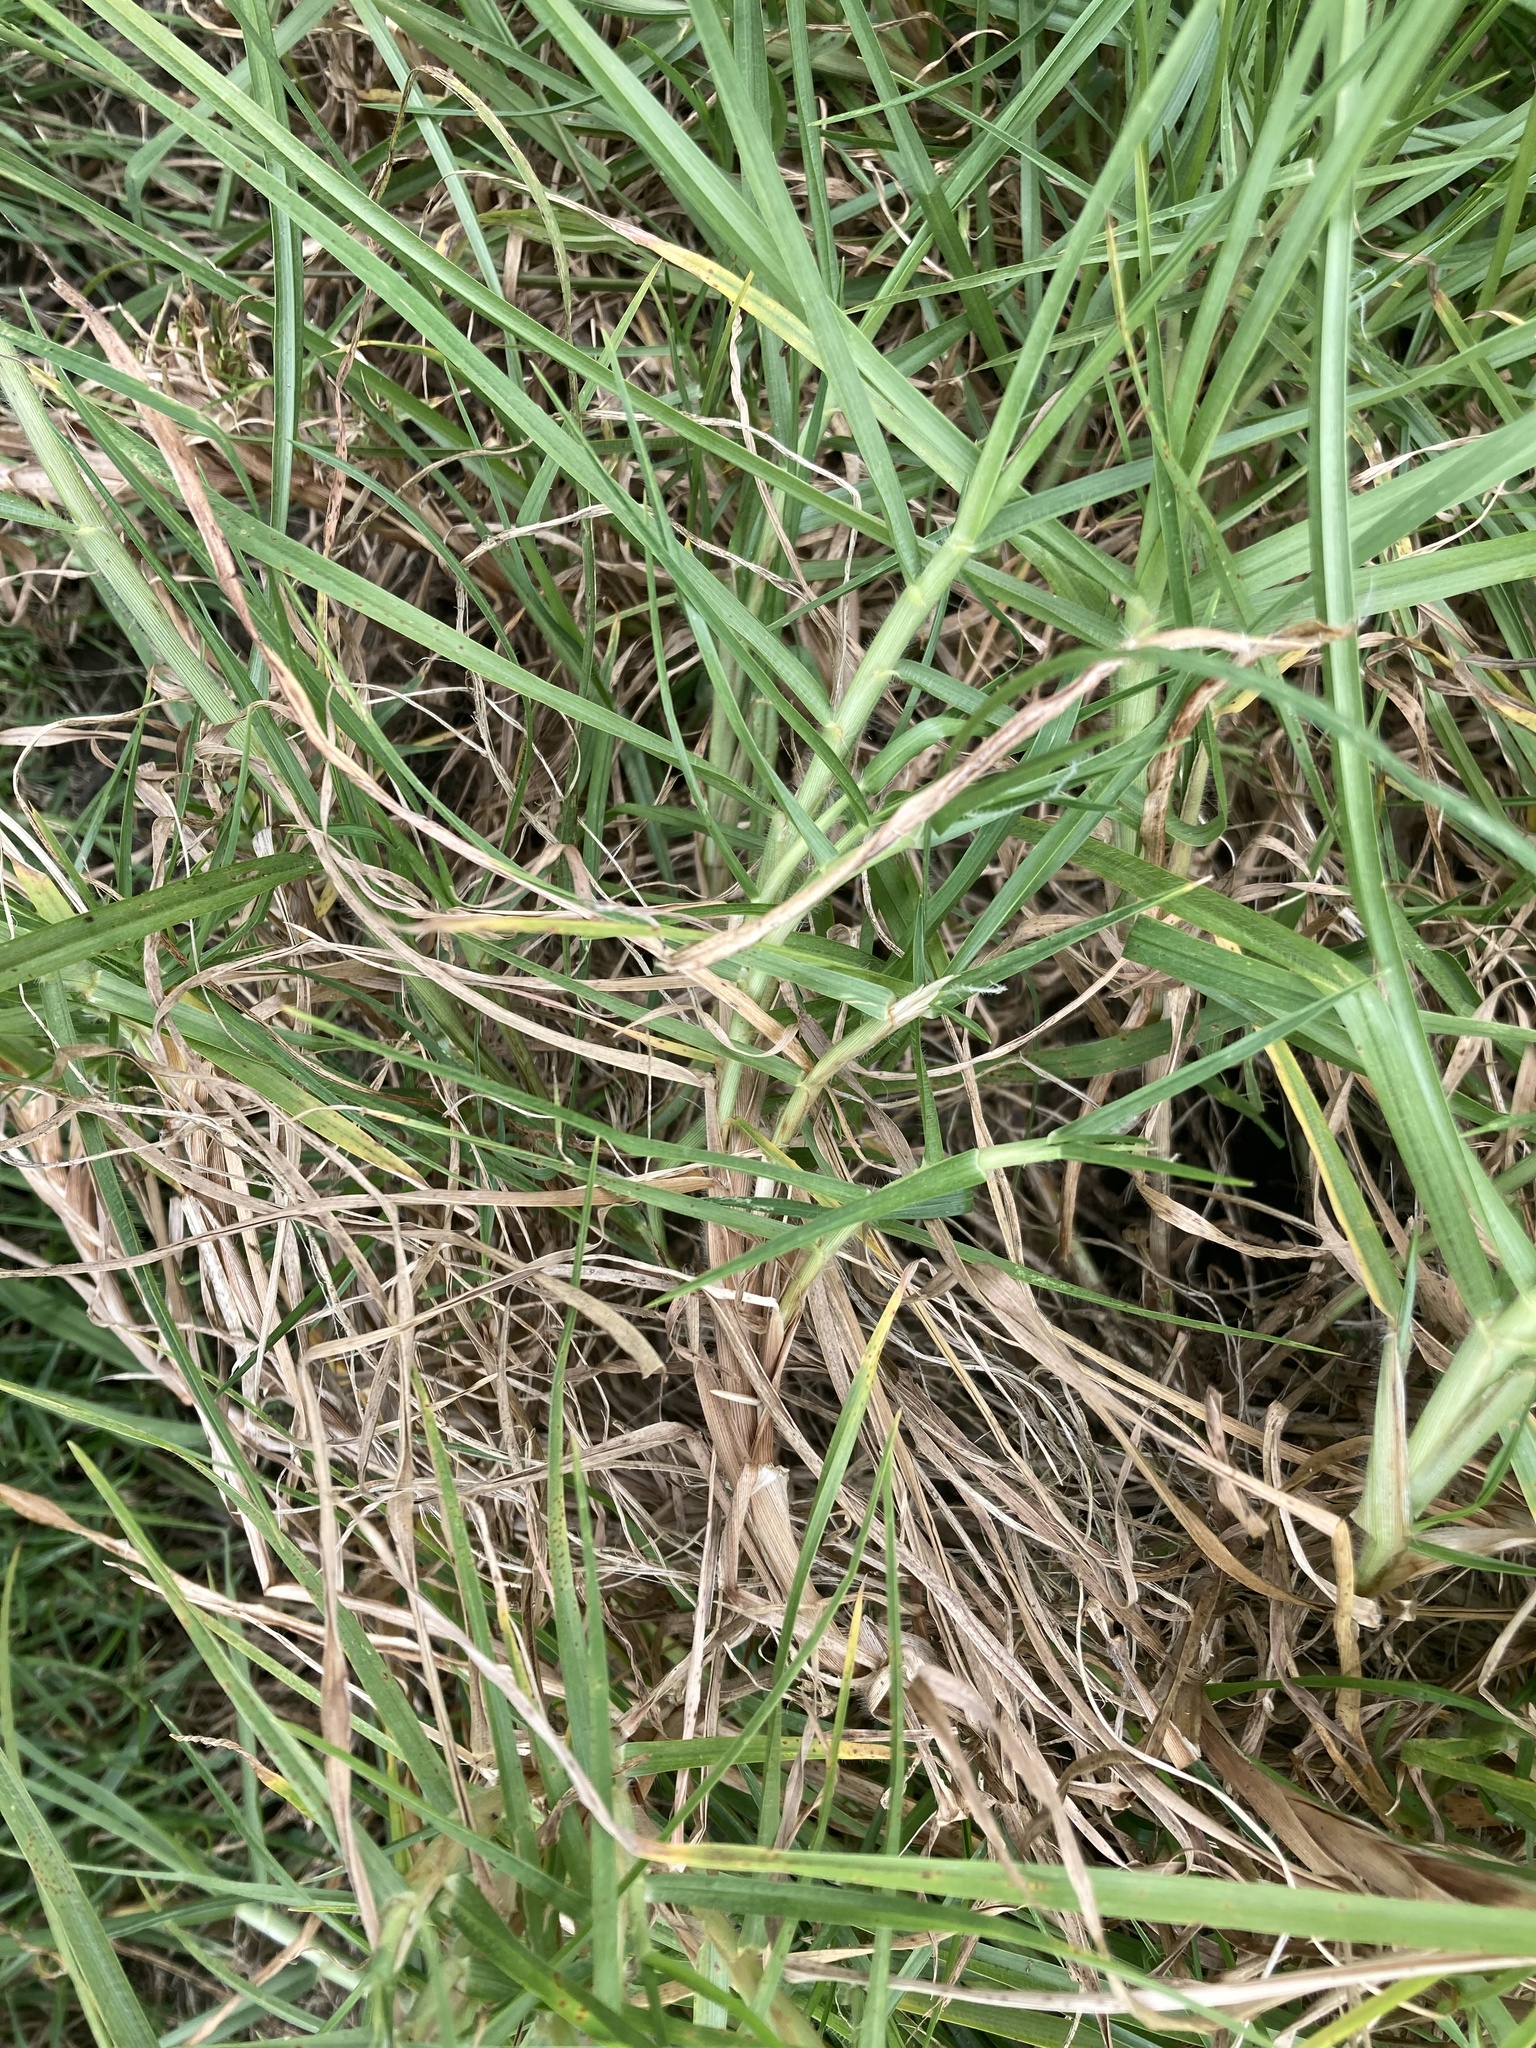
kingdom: Plantae
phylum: Tracheophyta
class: Liliopsida
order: Poales
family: Poaceae
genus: Cenchrus
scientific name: Cenchrus clandestinus
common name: Kikuyugrass
